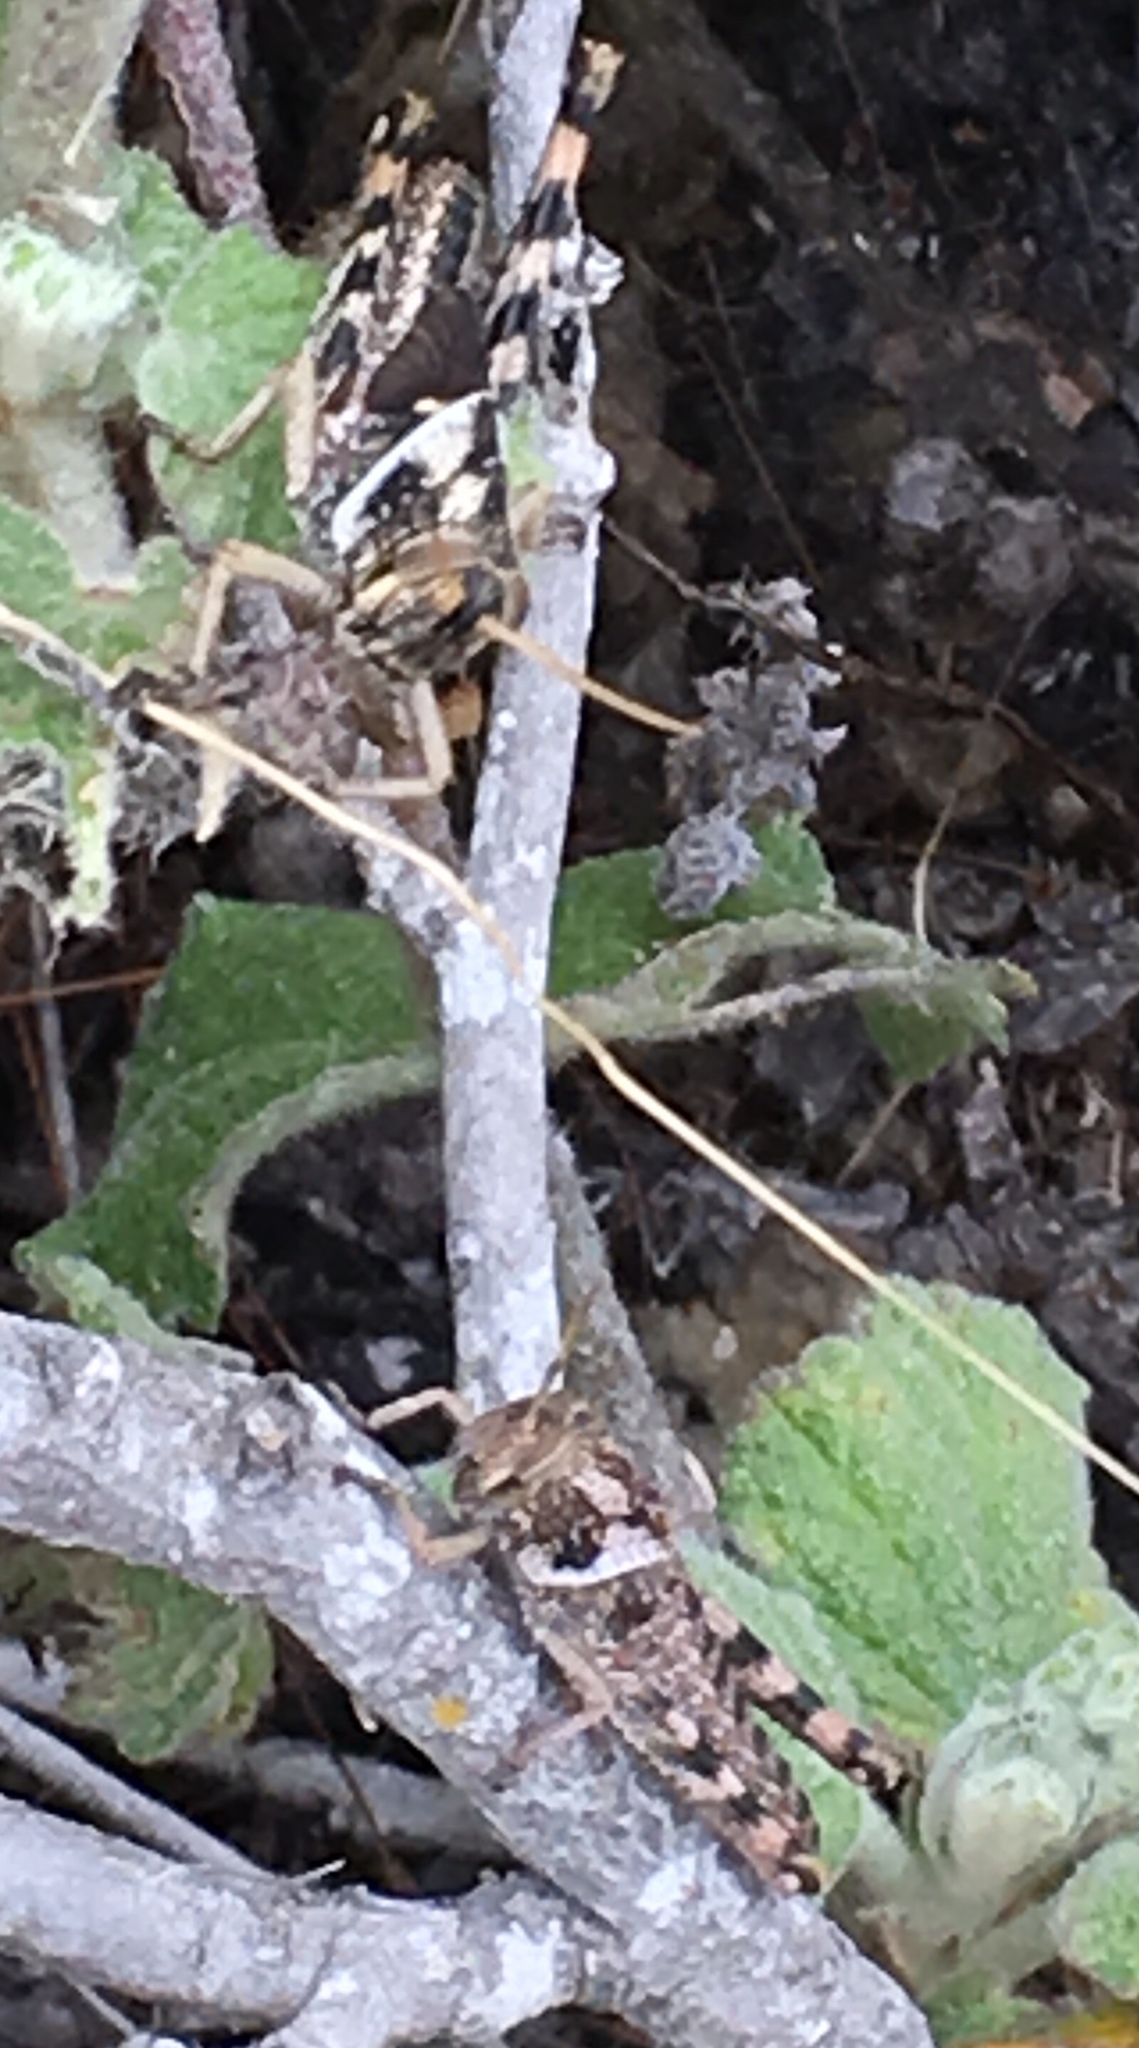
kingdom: Animalia
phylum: Arthropoda
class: Insecta
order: Orthoptera
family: Acrididae
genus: Schistocerca
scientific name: Schistocerca nitens
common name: Vagrant grasshopper
